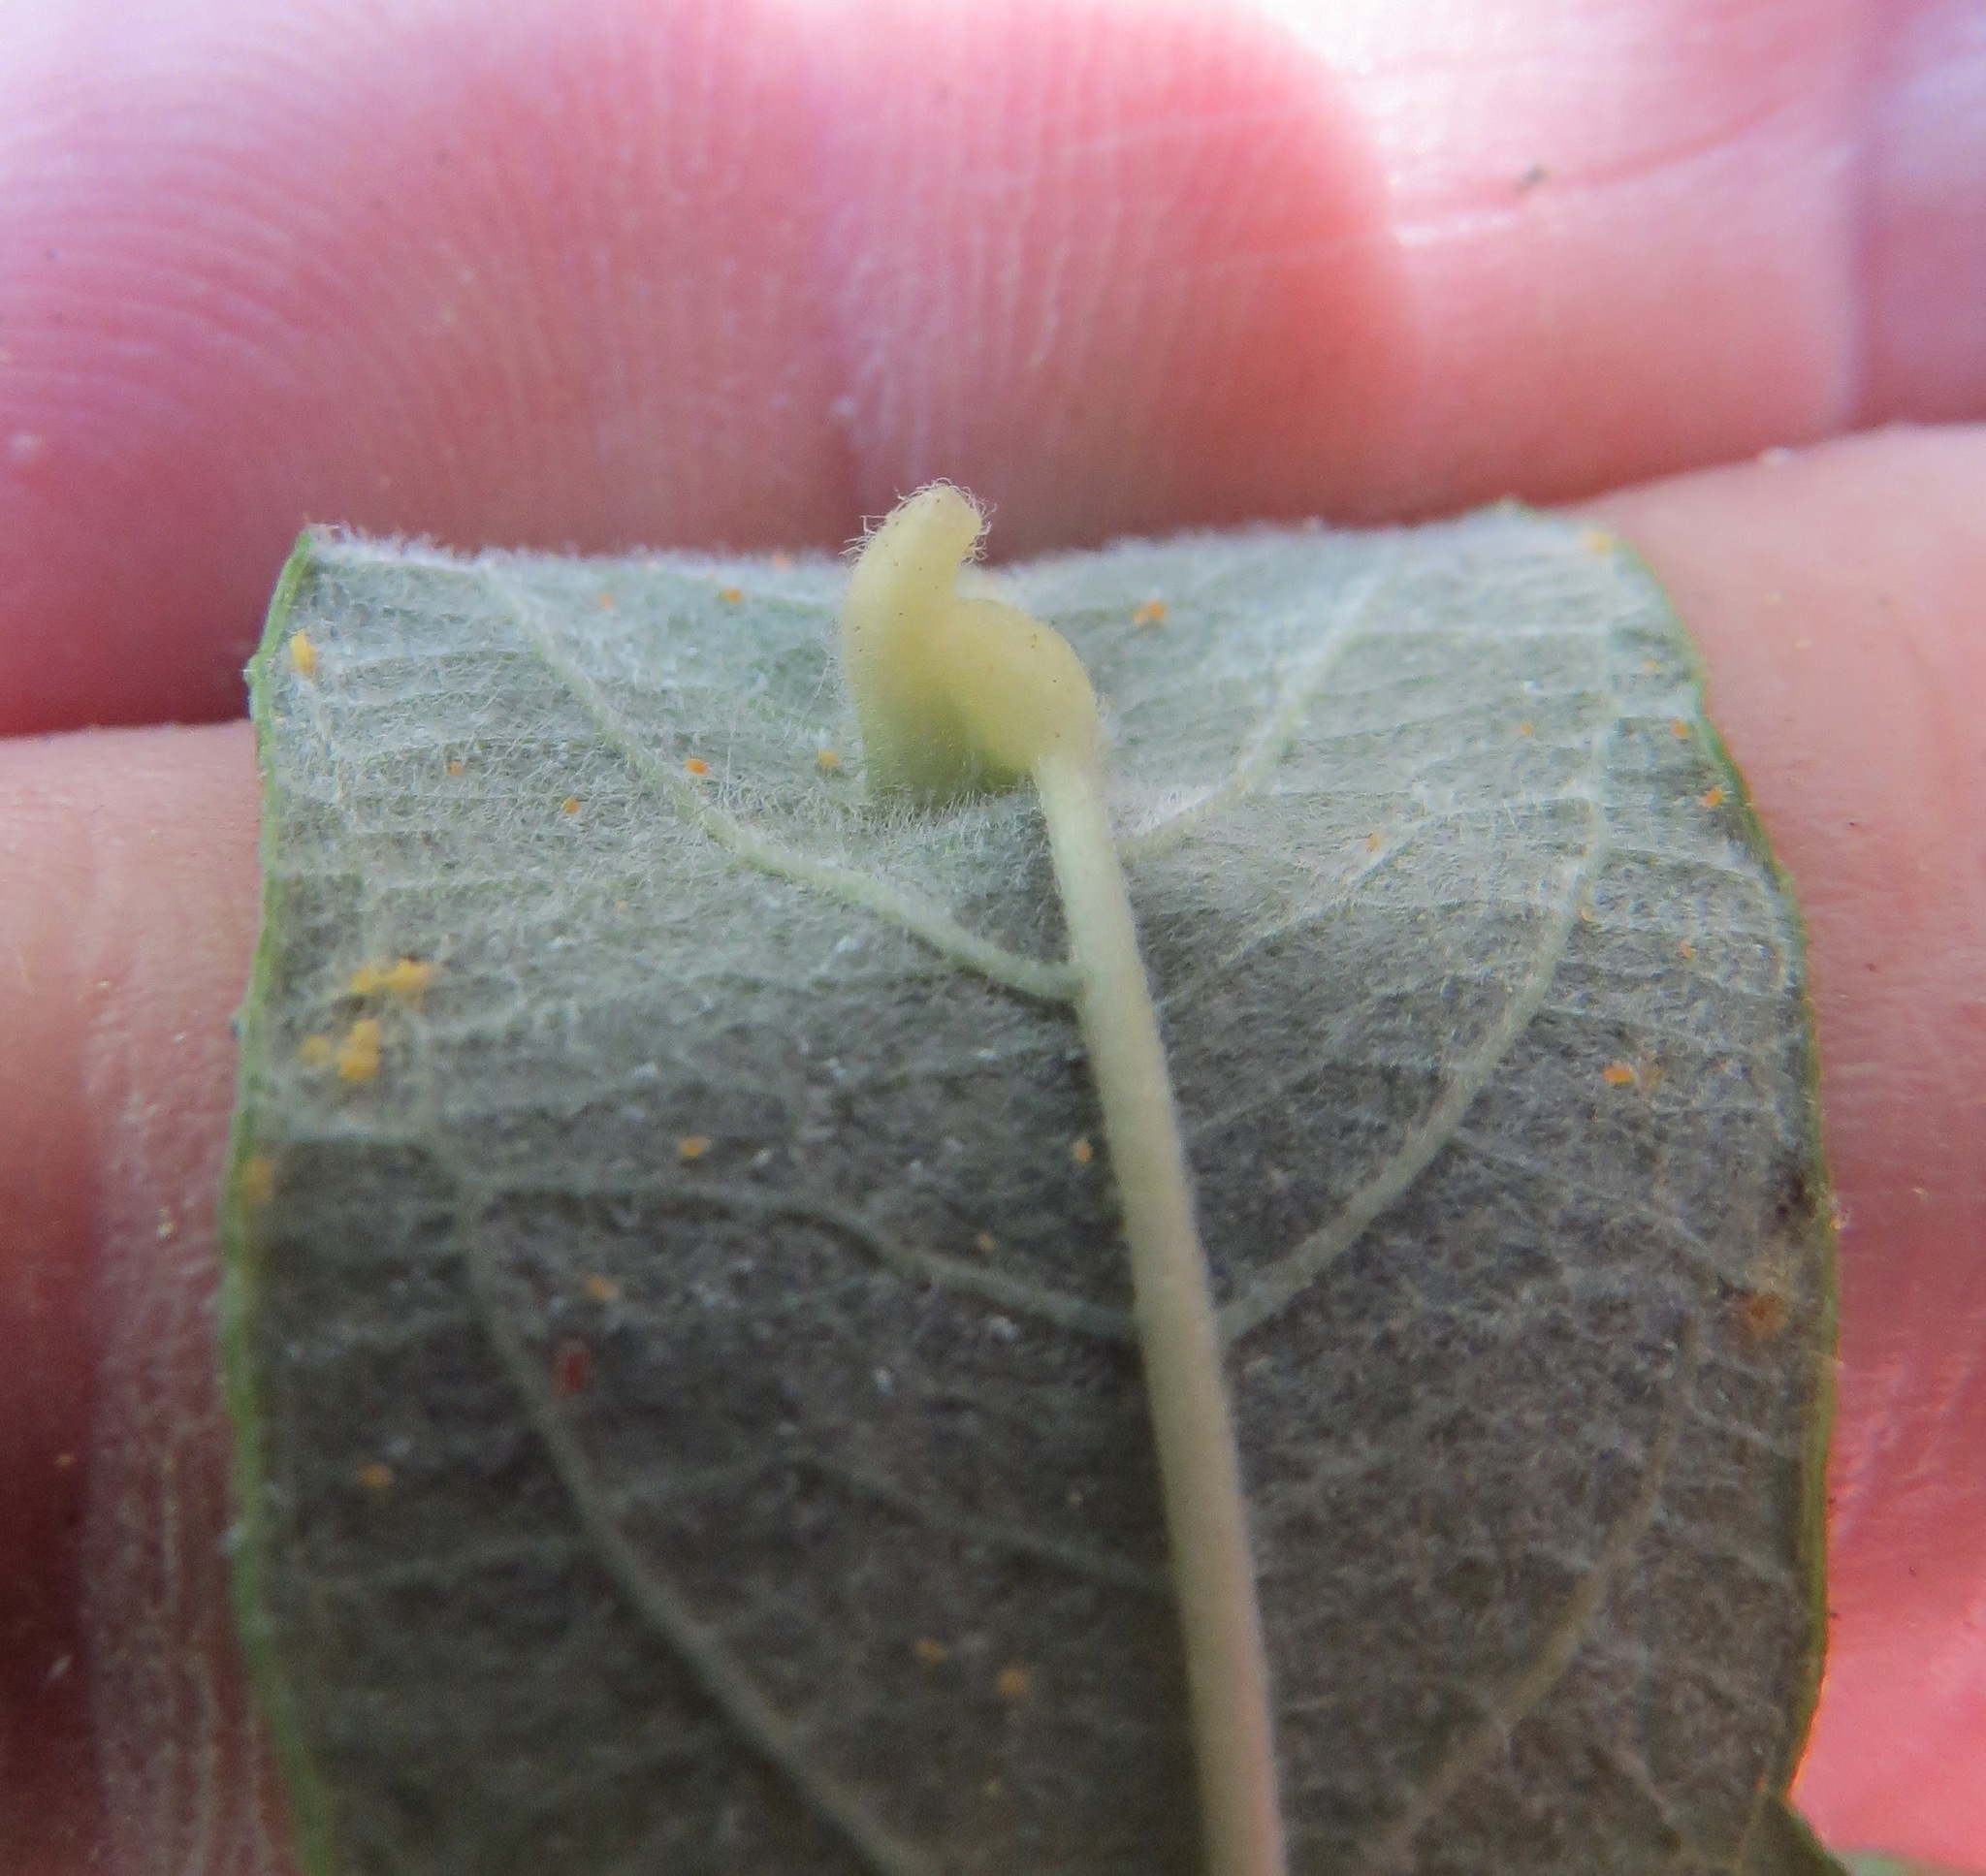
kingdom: Animalia
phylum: Arthropoda
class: Insecta
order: Diptera
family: Cecidomyiidae
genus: Iteomyia
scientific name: Iteomyia
